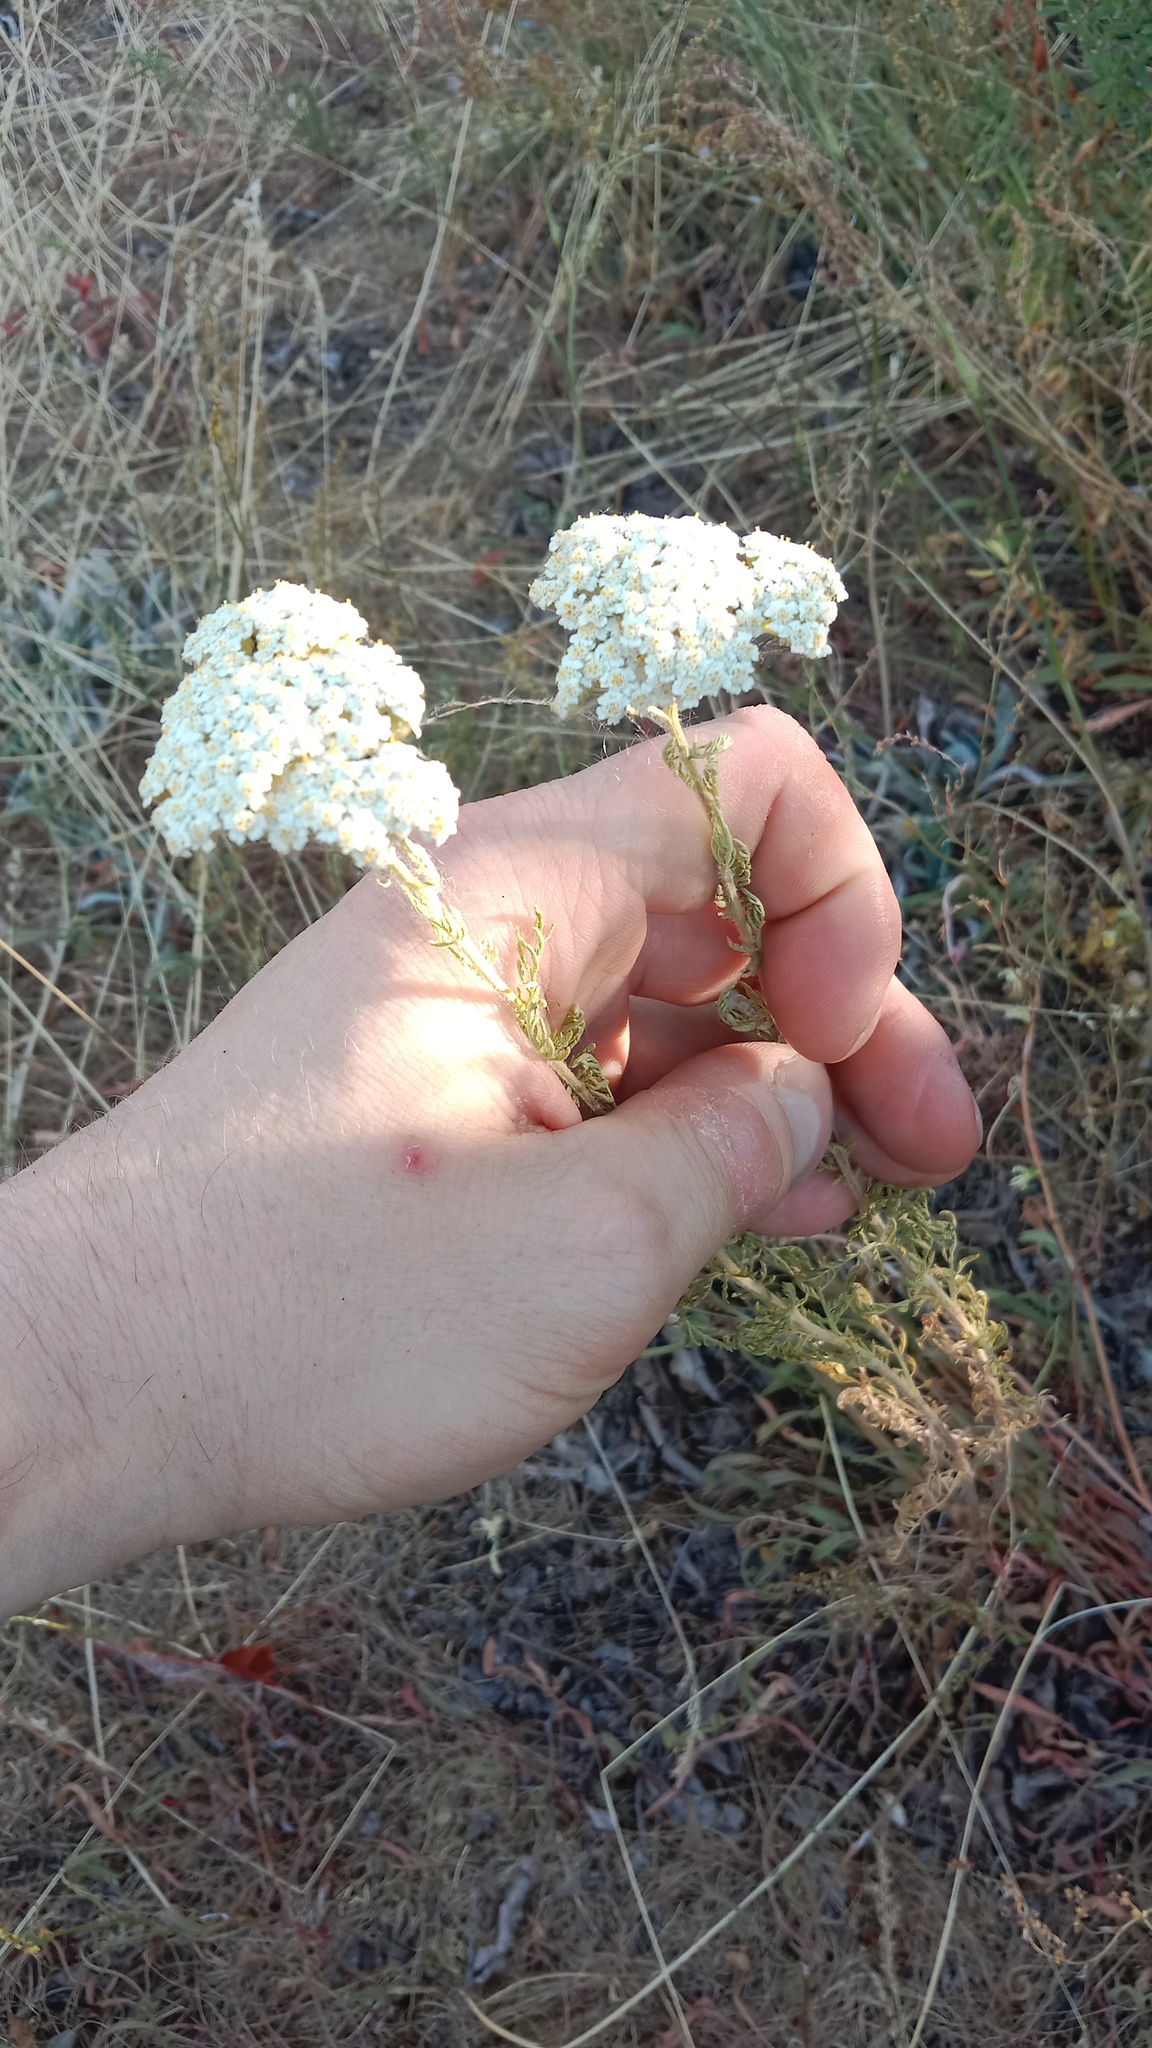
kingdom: Plantae
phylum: Tracheophyta
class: Magnoliopsida
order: Asterales
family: Asteraceae
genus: Achillea
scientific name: Achillea nobilis
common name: Noble yarrow
